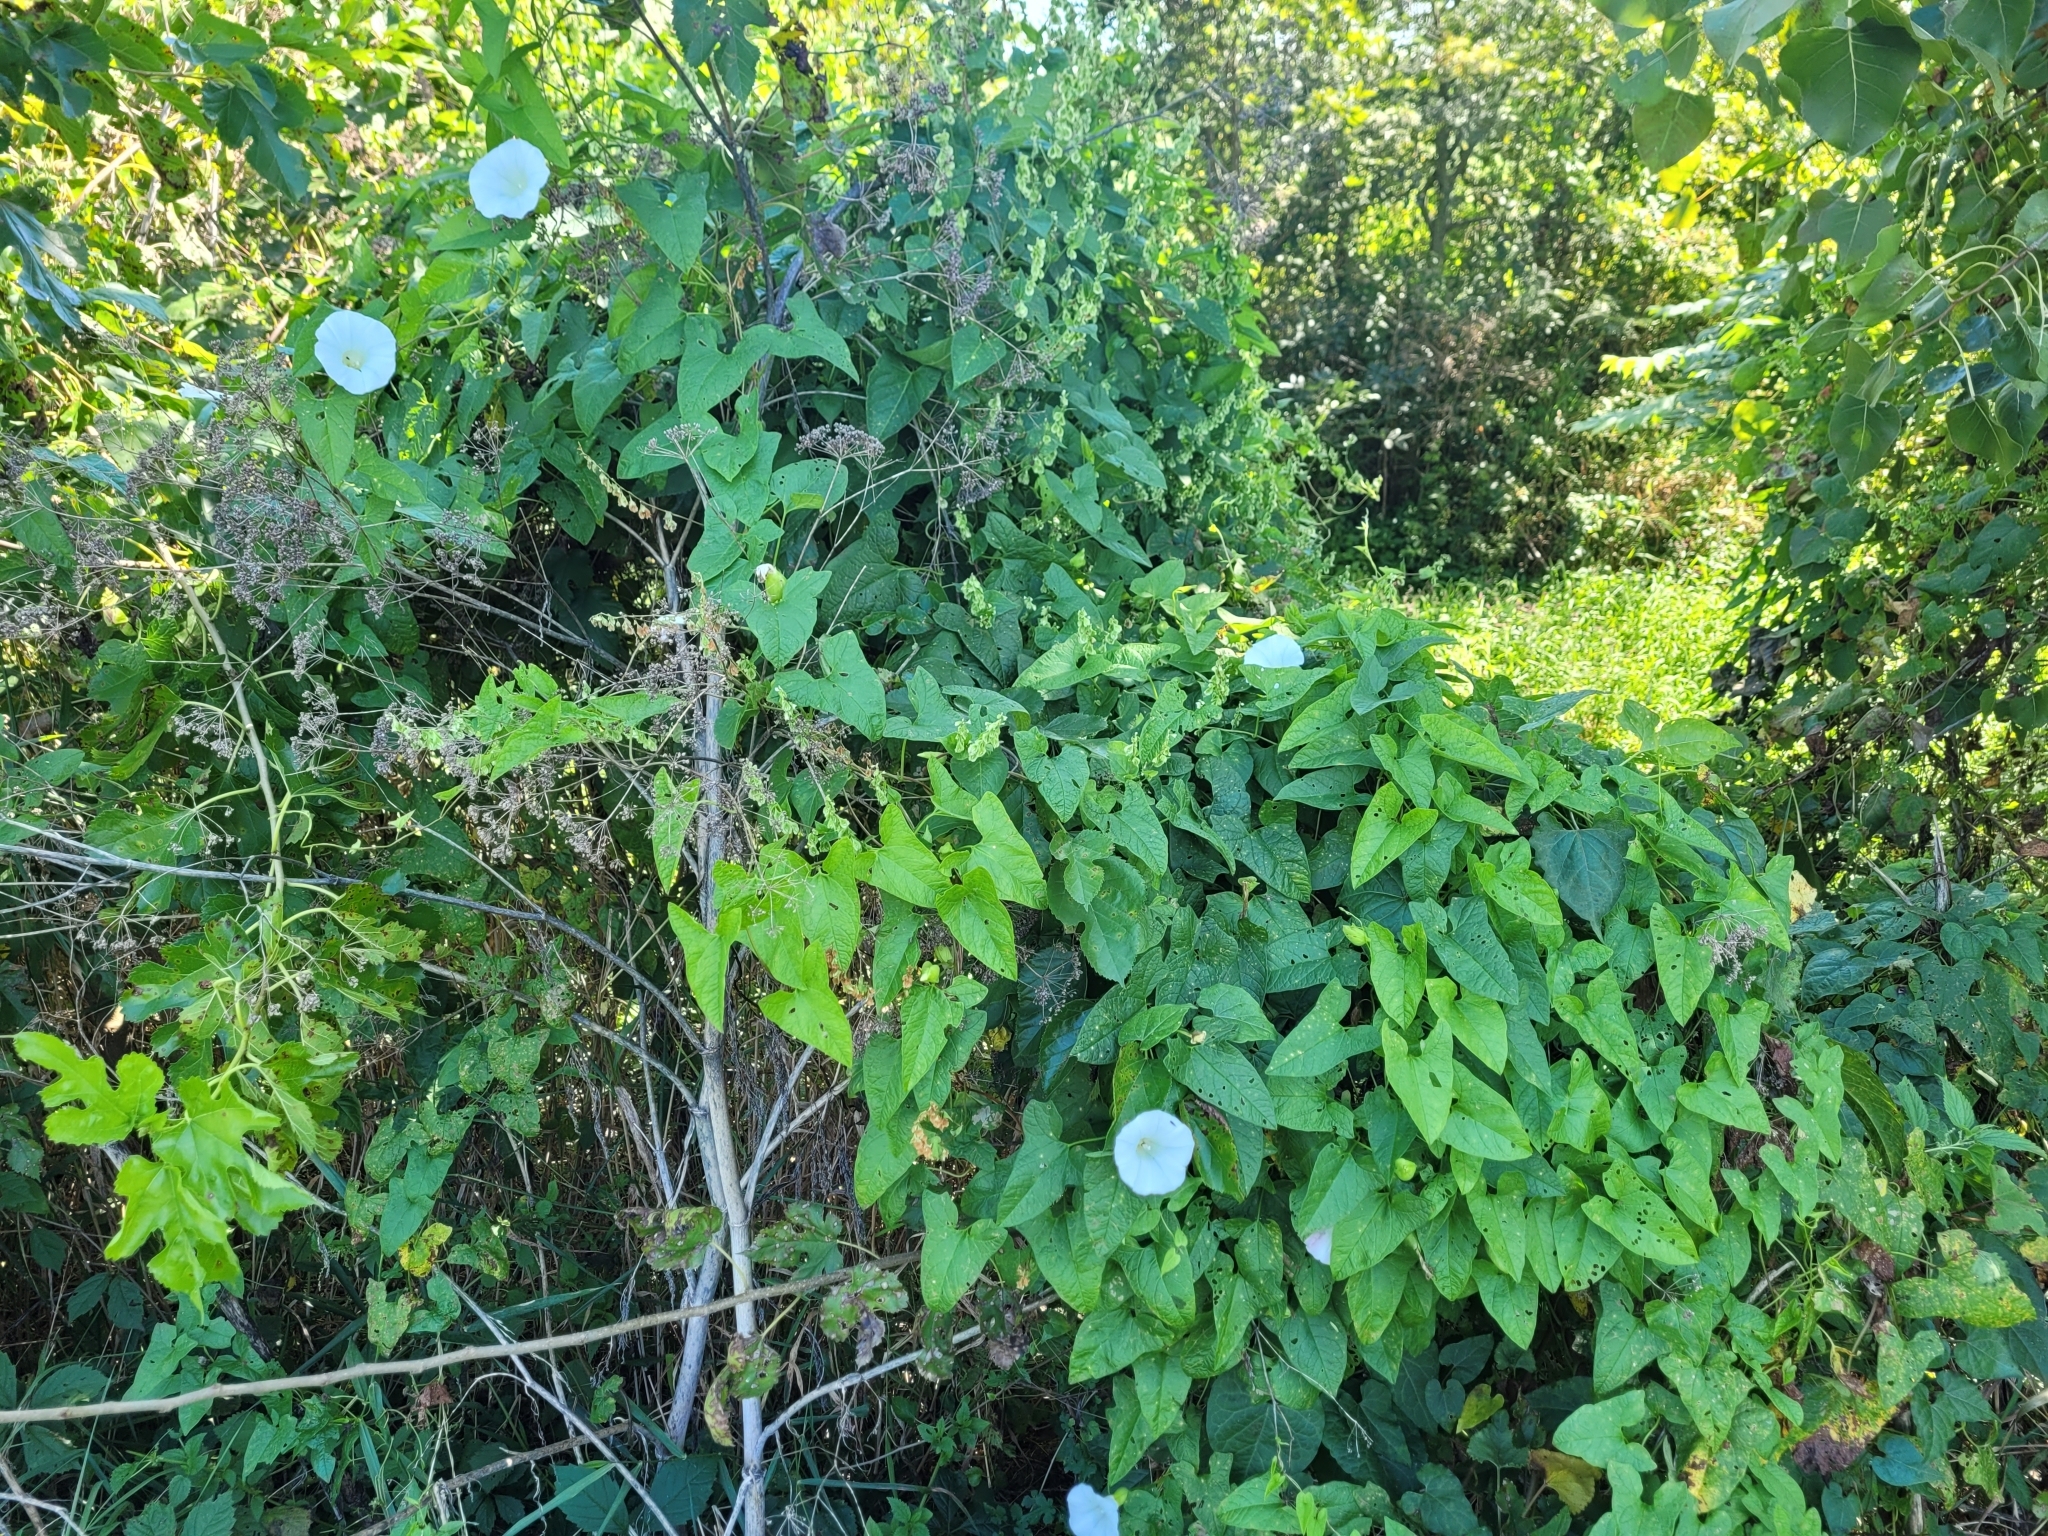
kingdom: Plantae
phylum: Tracheophyta
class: Magnoliopsida
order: Solanales
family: Convolvulaceae
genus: Calystegia
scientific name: Calystegia sepium
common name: Hedge bindweed
